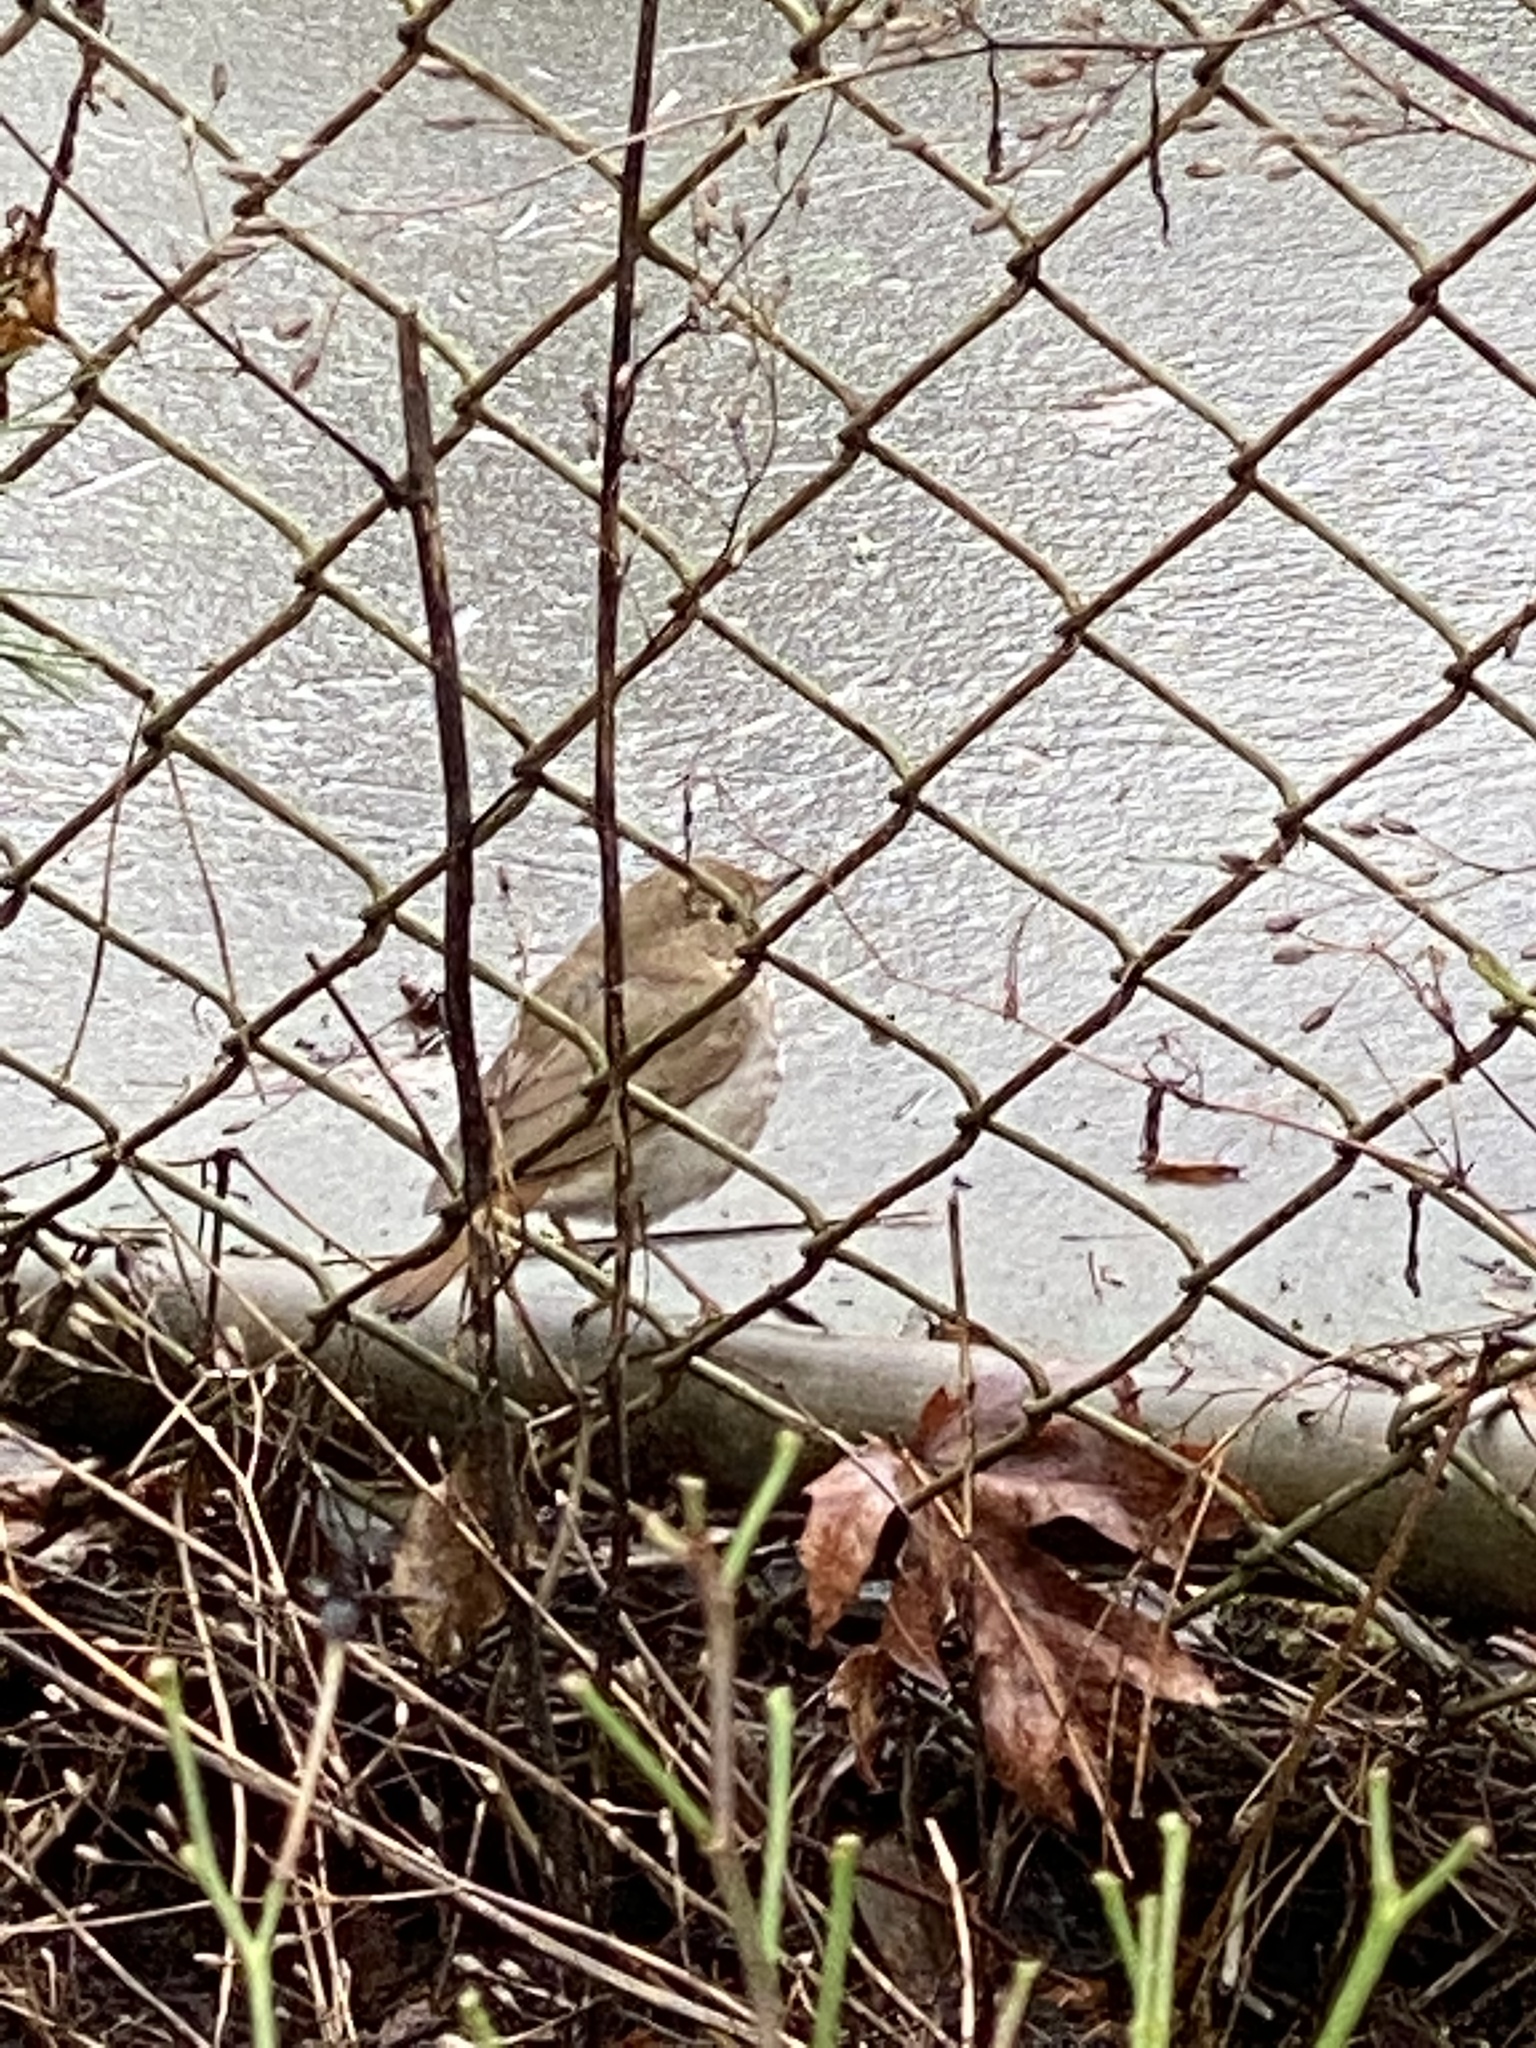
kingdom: Animalia
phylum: Chordata
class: Aves
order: Passeriformes
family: Turdidae
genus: Catharus
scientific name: Catharus guttatus
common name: Hermit thrush
